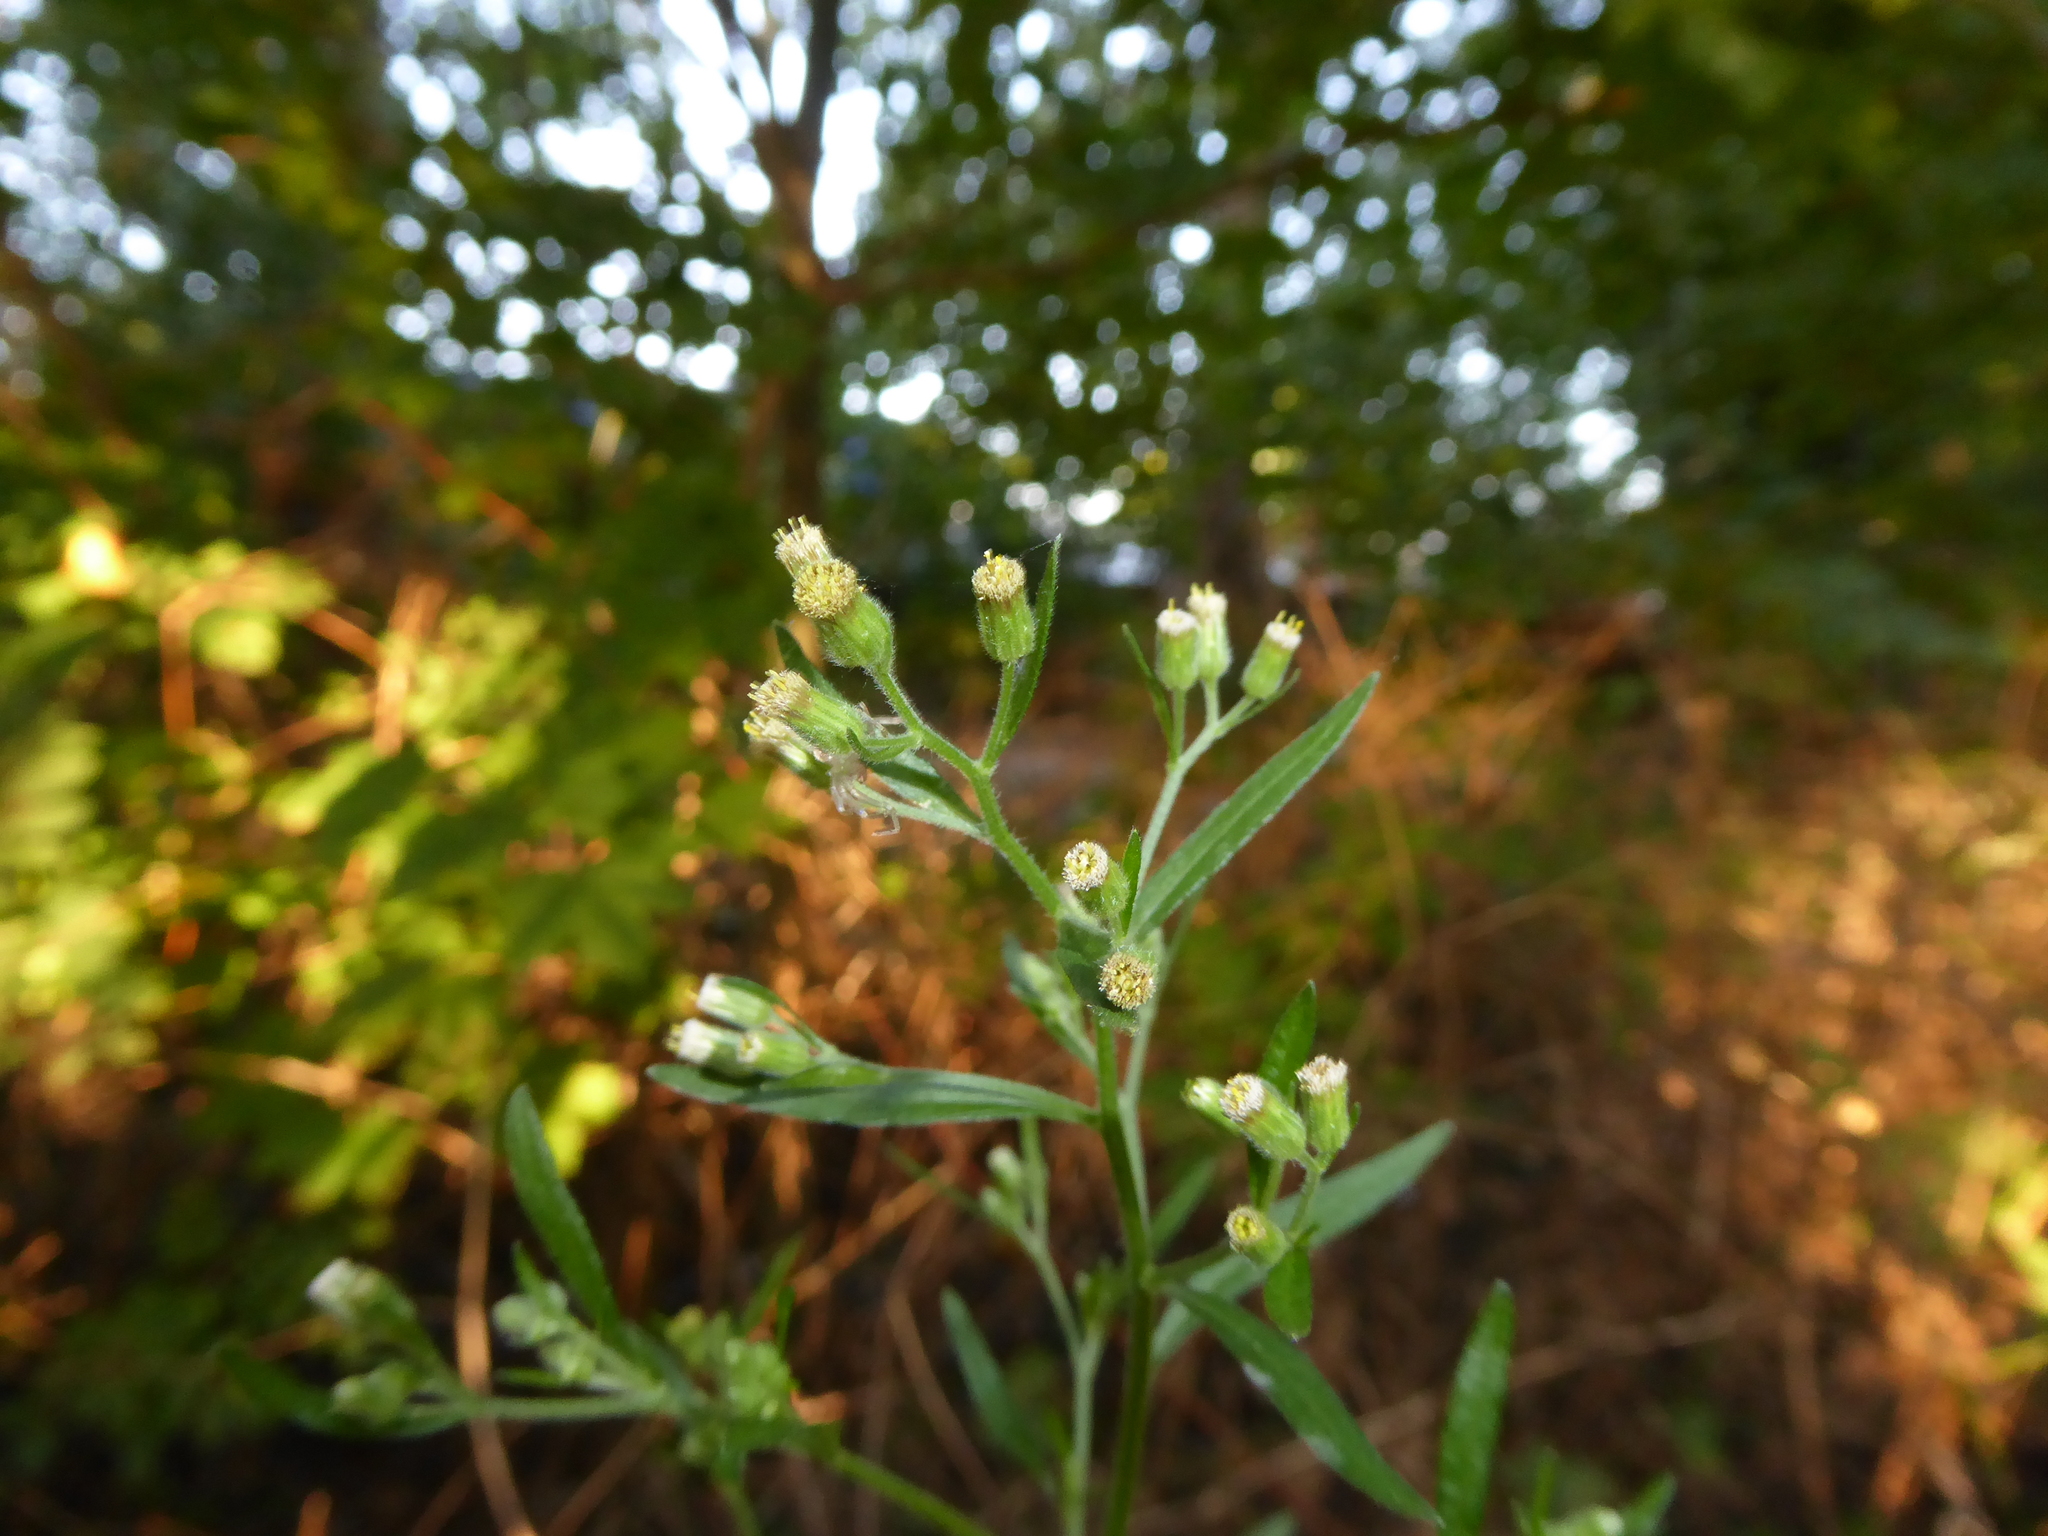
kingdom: Plantae
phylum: Tracheophyta
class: Magnoliopsida
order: Asterales
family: Asteraceae
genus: Erigeron
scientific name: Erigeron sumatrensis
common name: Daisy
